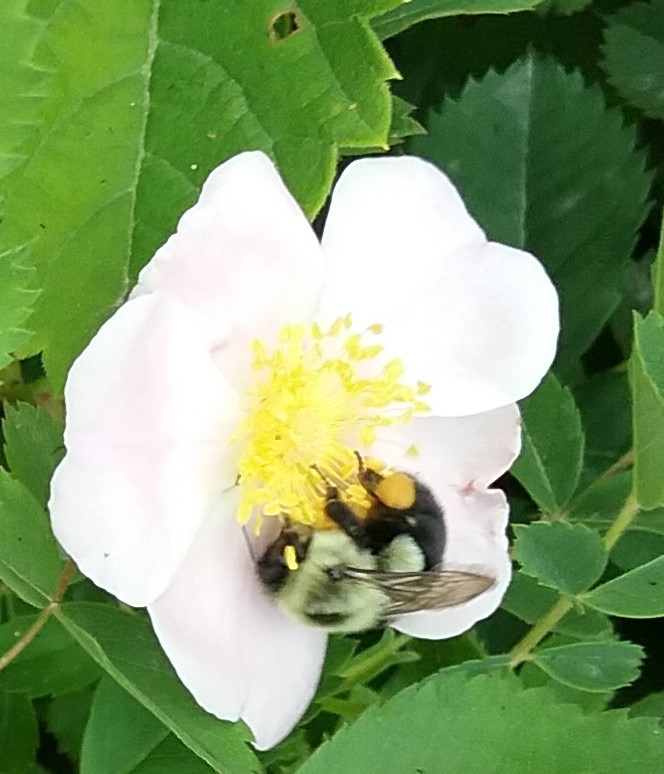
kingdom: Animalia
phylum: Arthropoda
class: Insecta
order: Hymenoptera
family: Apidae
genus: Bombus
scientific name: Bombus impatiens
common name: Common eastern bumble bee
